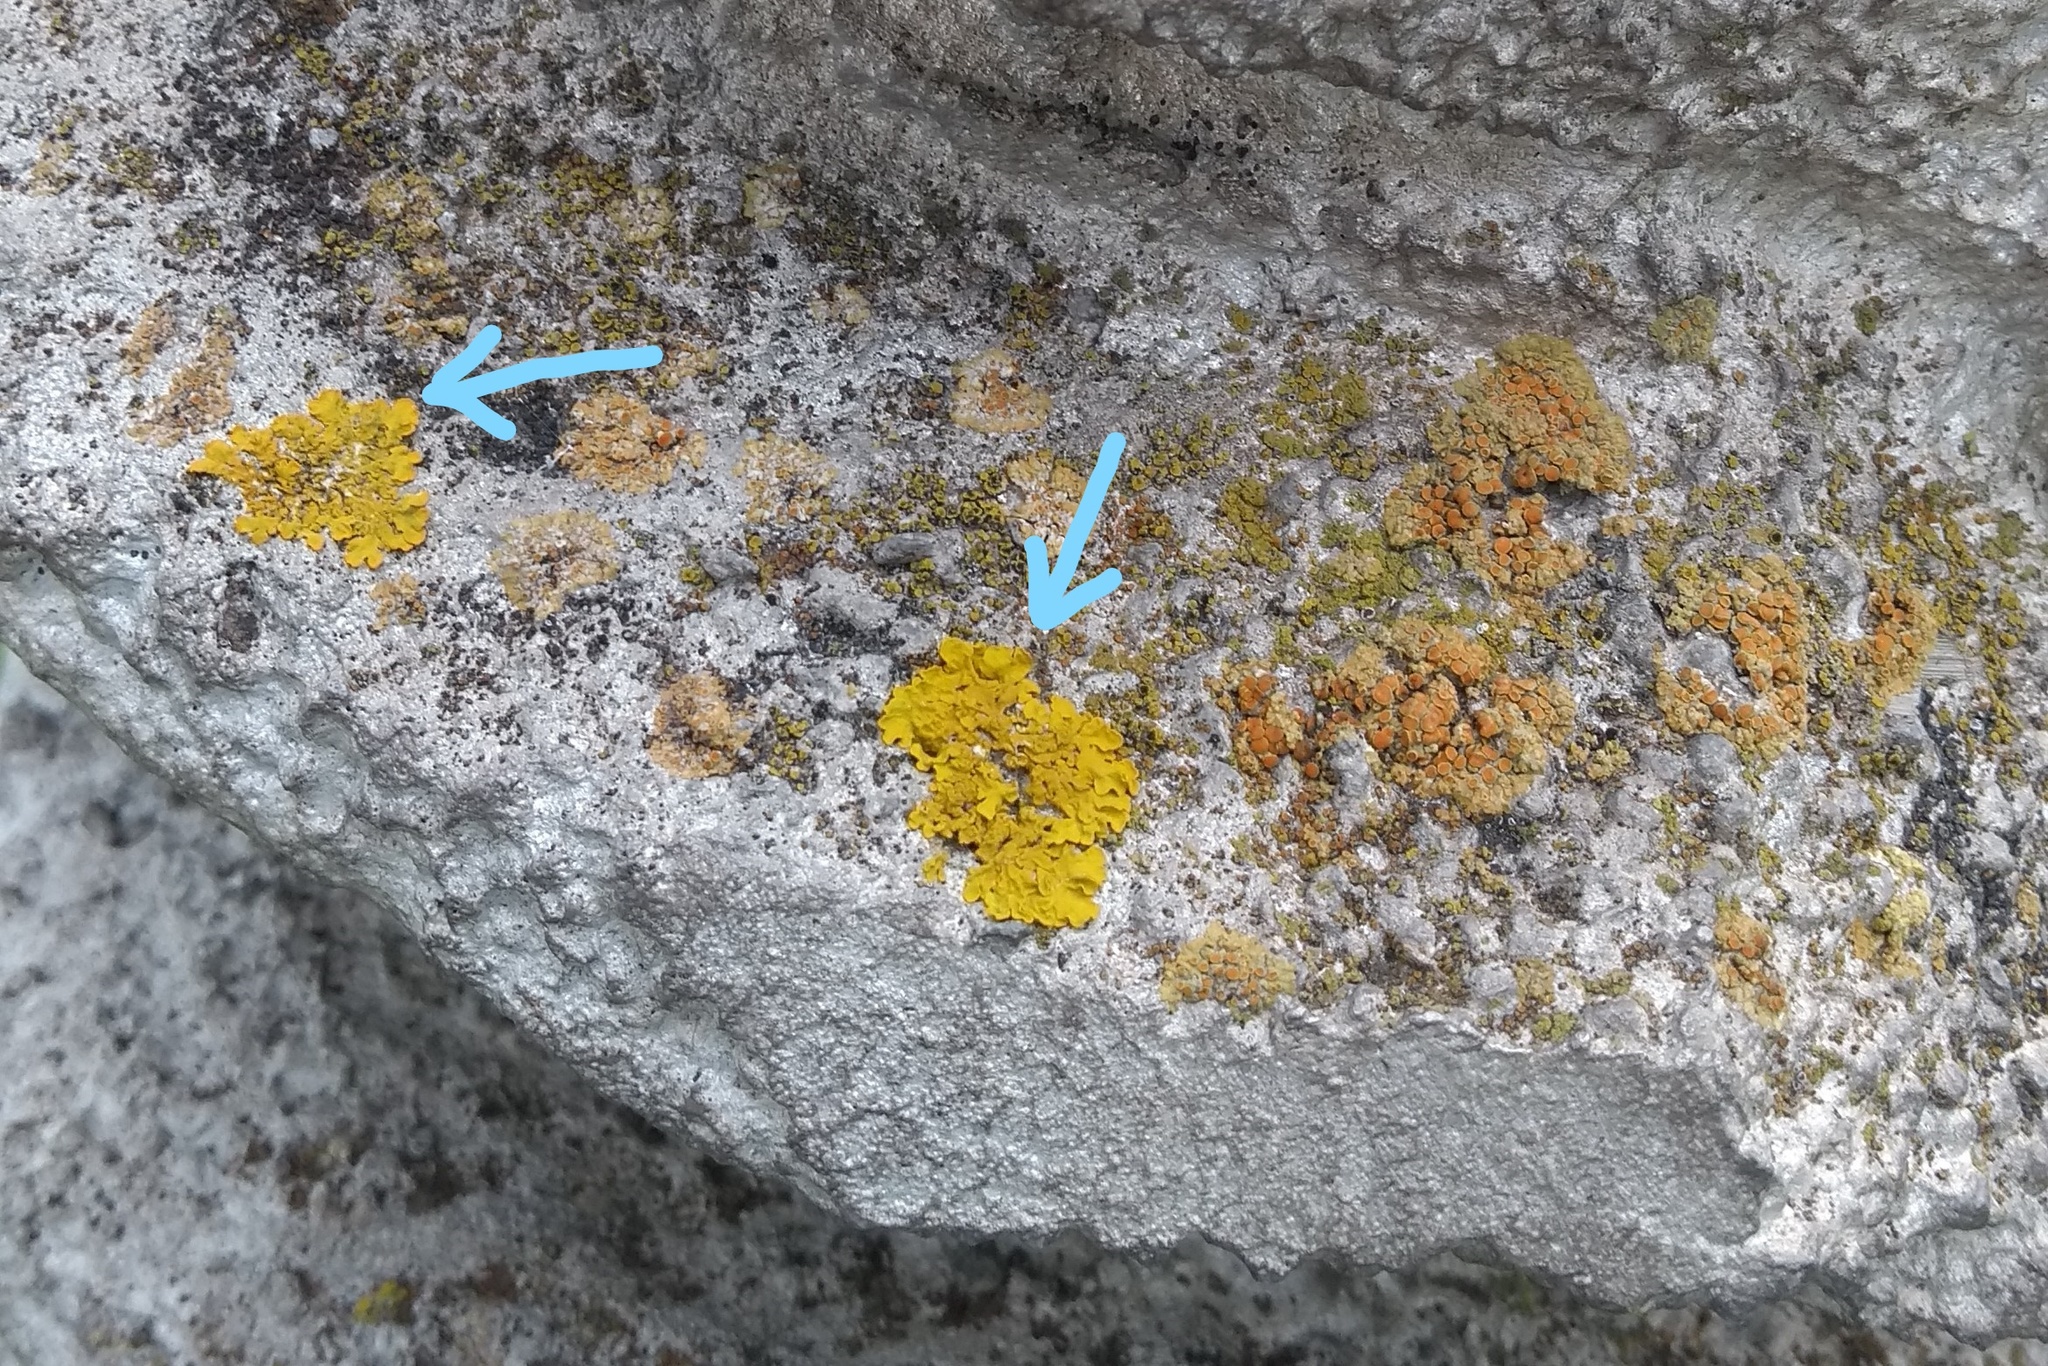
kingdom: Fungi
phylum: Ascomycota
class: Lecanoromycetes
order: Teloschistales
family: Teloschistaceae
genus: Xanthoria
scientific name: Xanthoria parietina
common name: Common orange lichen
